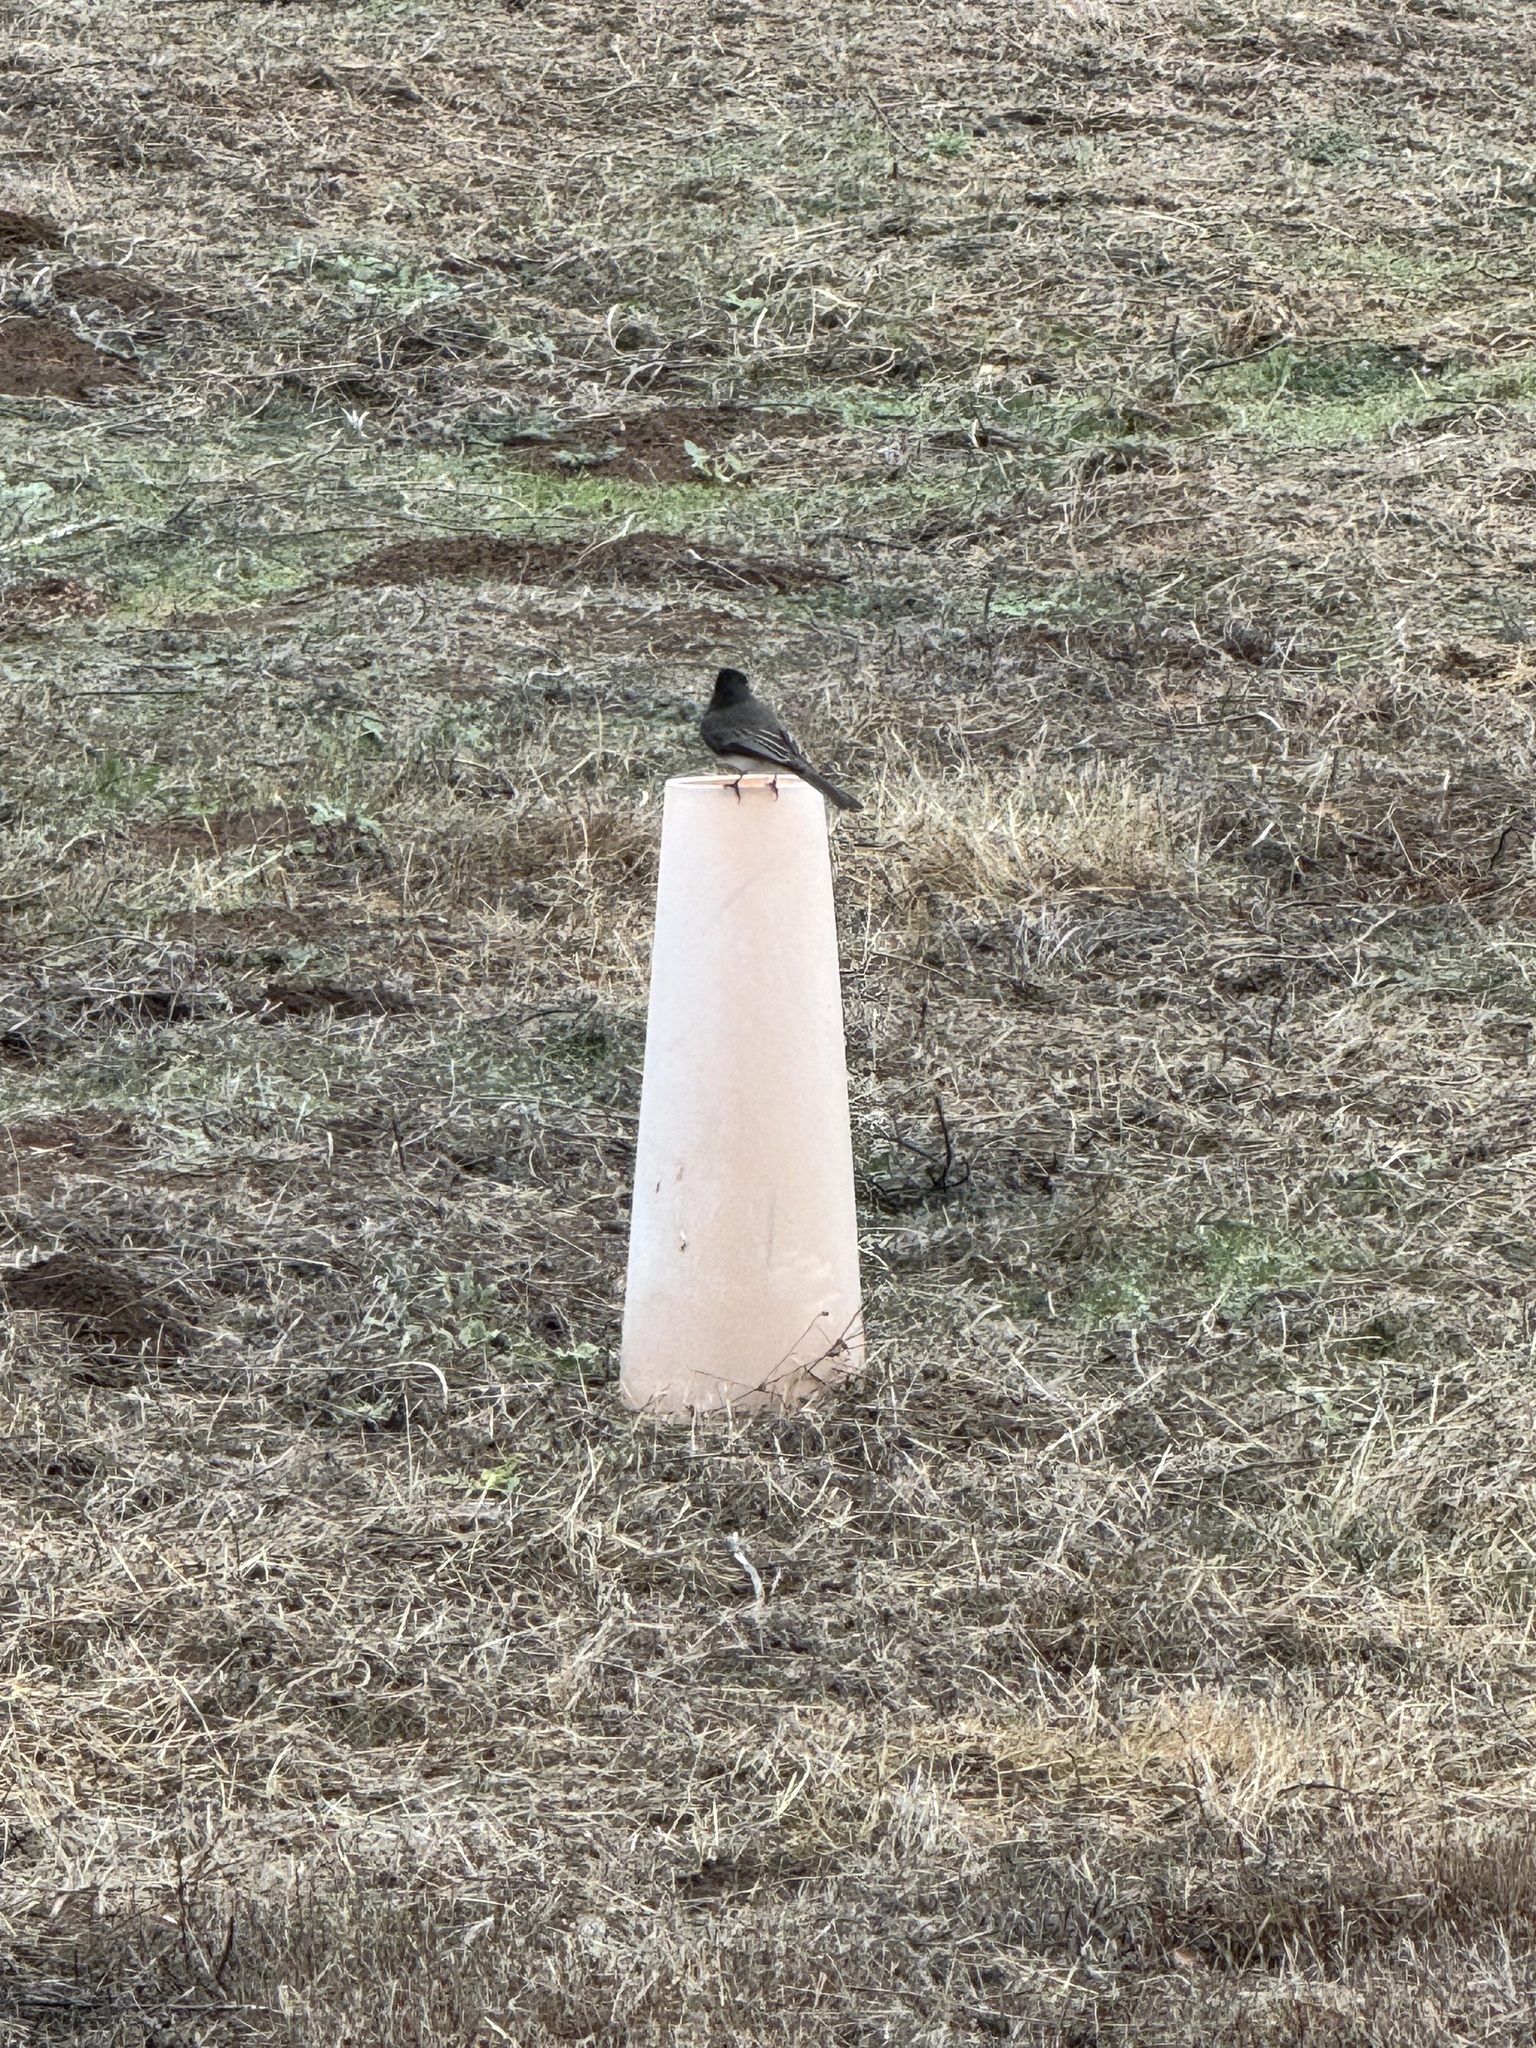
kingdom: Animalia
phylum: Chordata
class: Aves
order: Passeriformes
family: Tyrannidae
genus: Sayornis
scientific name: Sayornis nigricans
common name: Black phoebe
